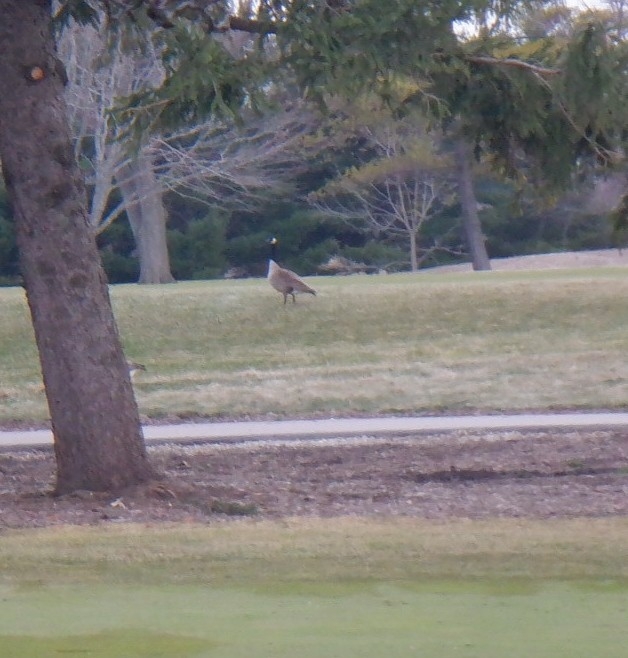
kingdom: Animalia
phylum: Chordata
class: Aves
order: Anseriformes
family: Anatidae
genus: Branta
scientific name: Branta canadensis
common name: Canada goose
